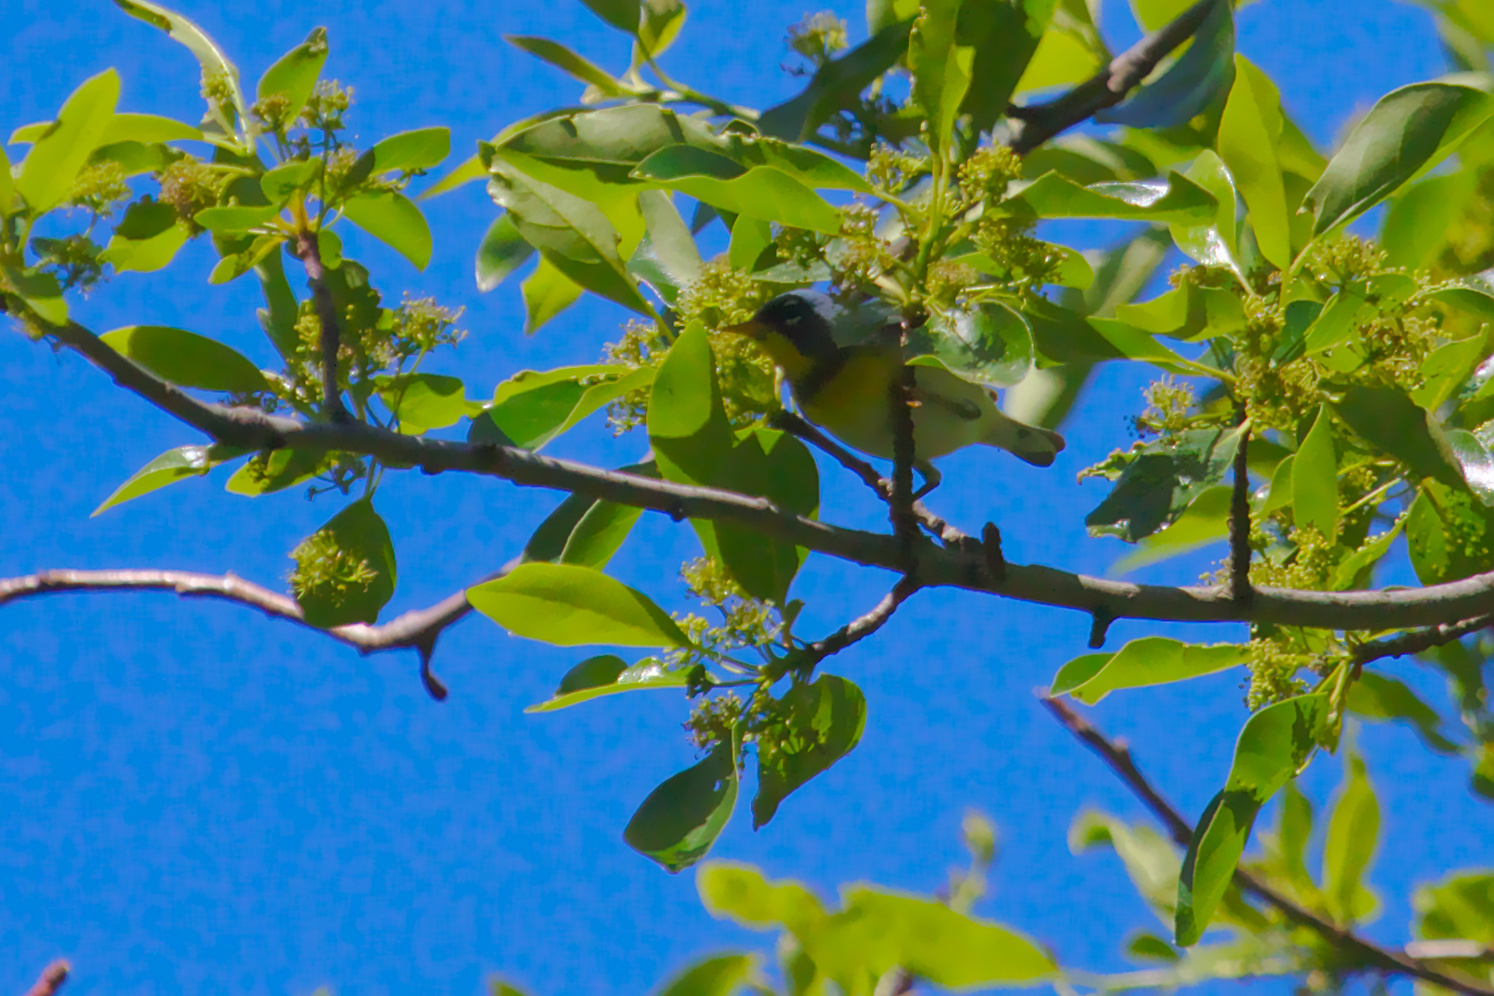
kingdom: Animalia
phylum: Chordata
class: Aves
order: Passeriformes
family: Parulidae
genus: Setophaga
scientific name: Setophaga americana
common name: Northern parula
